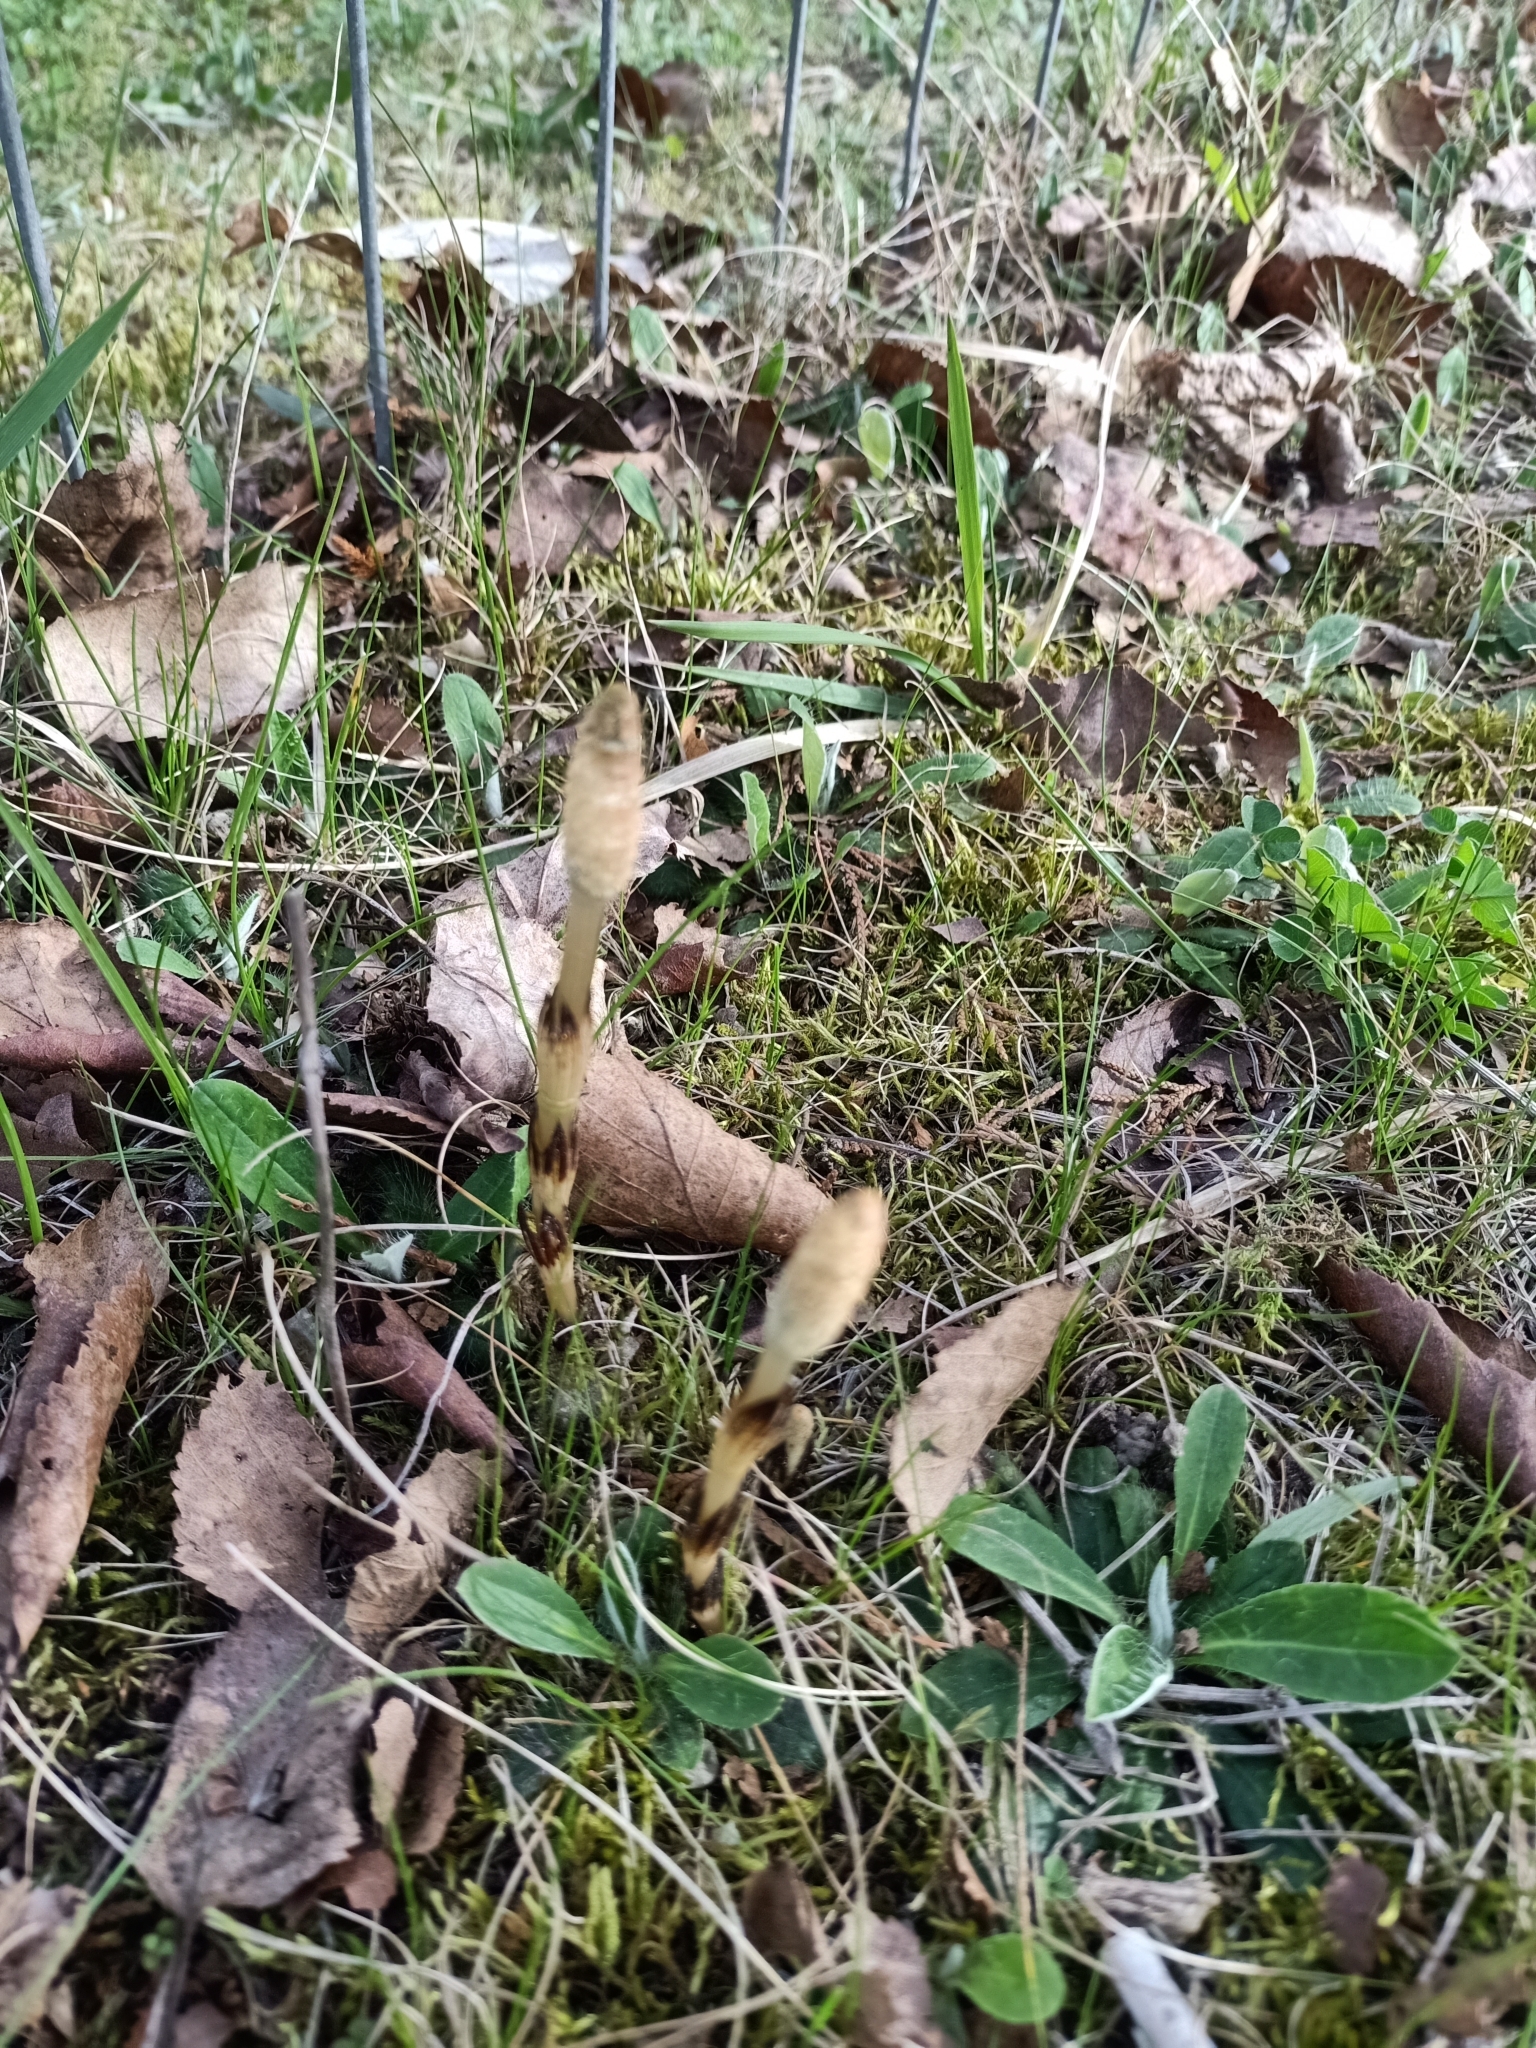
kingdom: Plantae
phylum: Tracheophyta
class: Polypodiopsida
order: Equisetales
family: Equisetaceae
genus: Equisetum
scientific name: Equisetum arvense
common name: Field horsetail
